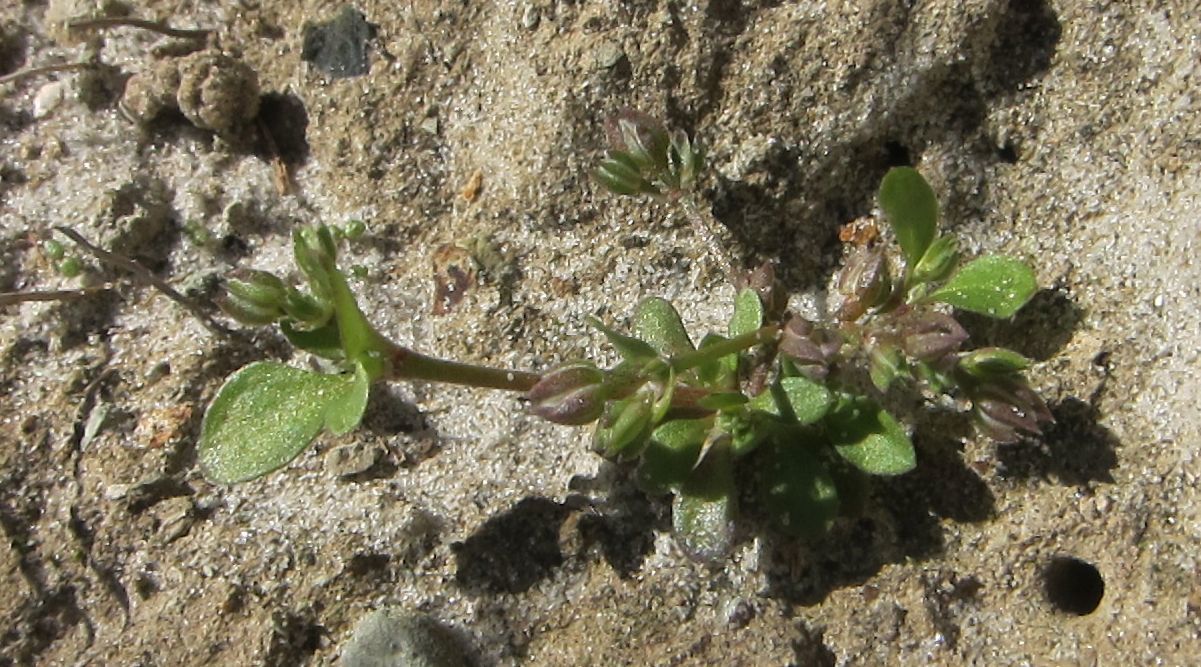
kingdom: Plantae
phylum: Tracheophyta
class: Magnoliopsida
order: Caryophyllales
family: Caryophyllaceae
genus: Polycarpon
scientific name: Polycarpon tetraphyllum
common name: Four-leaved all-seed
